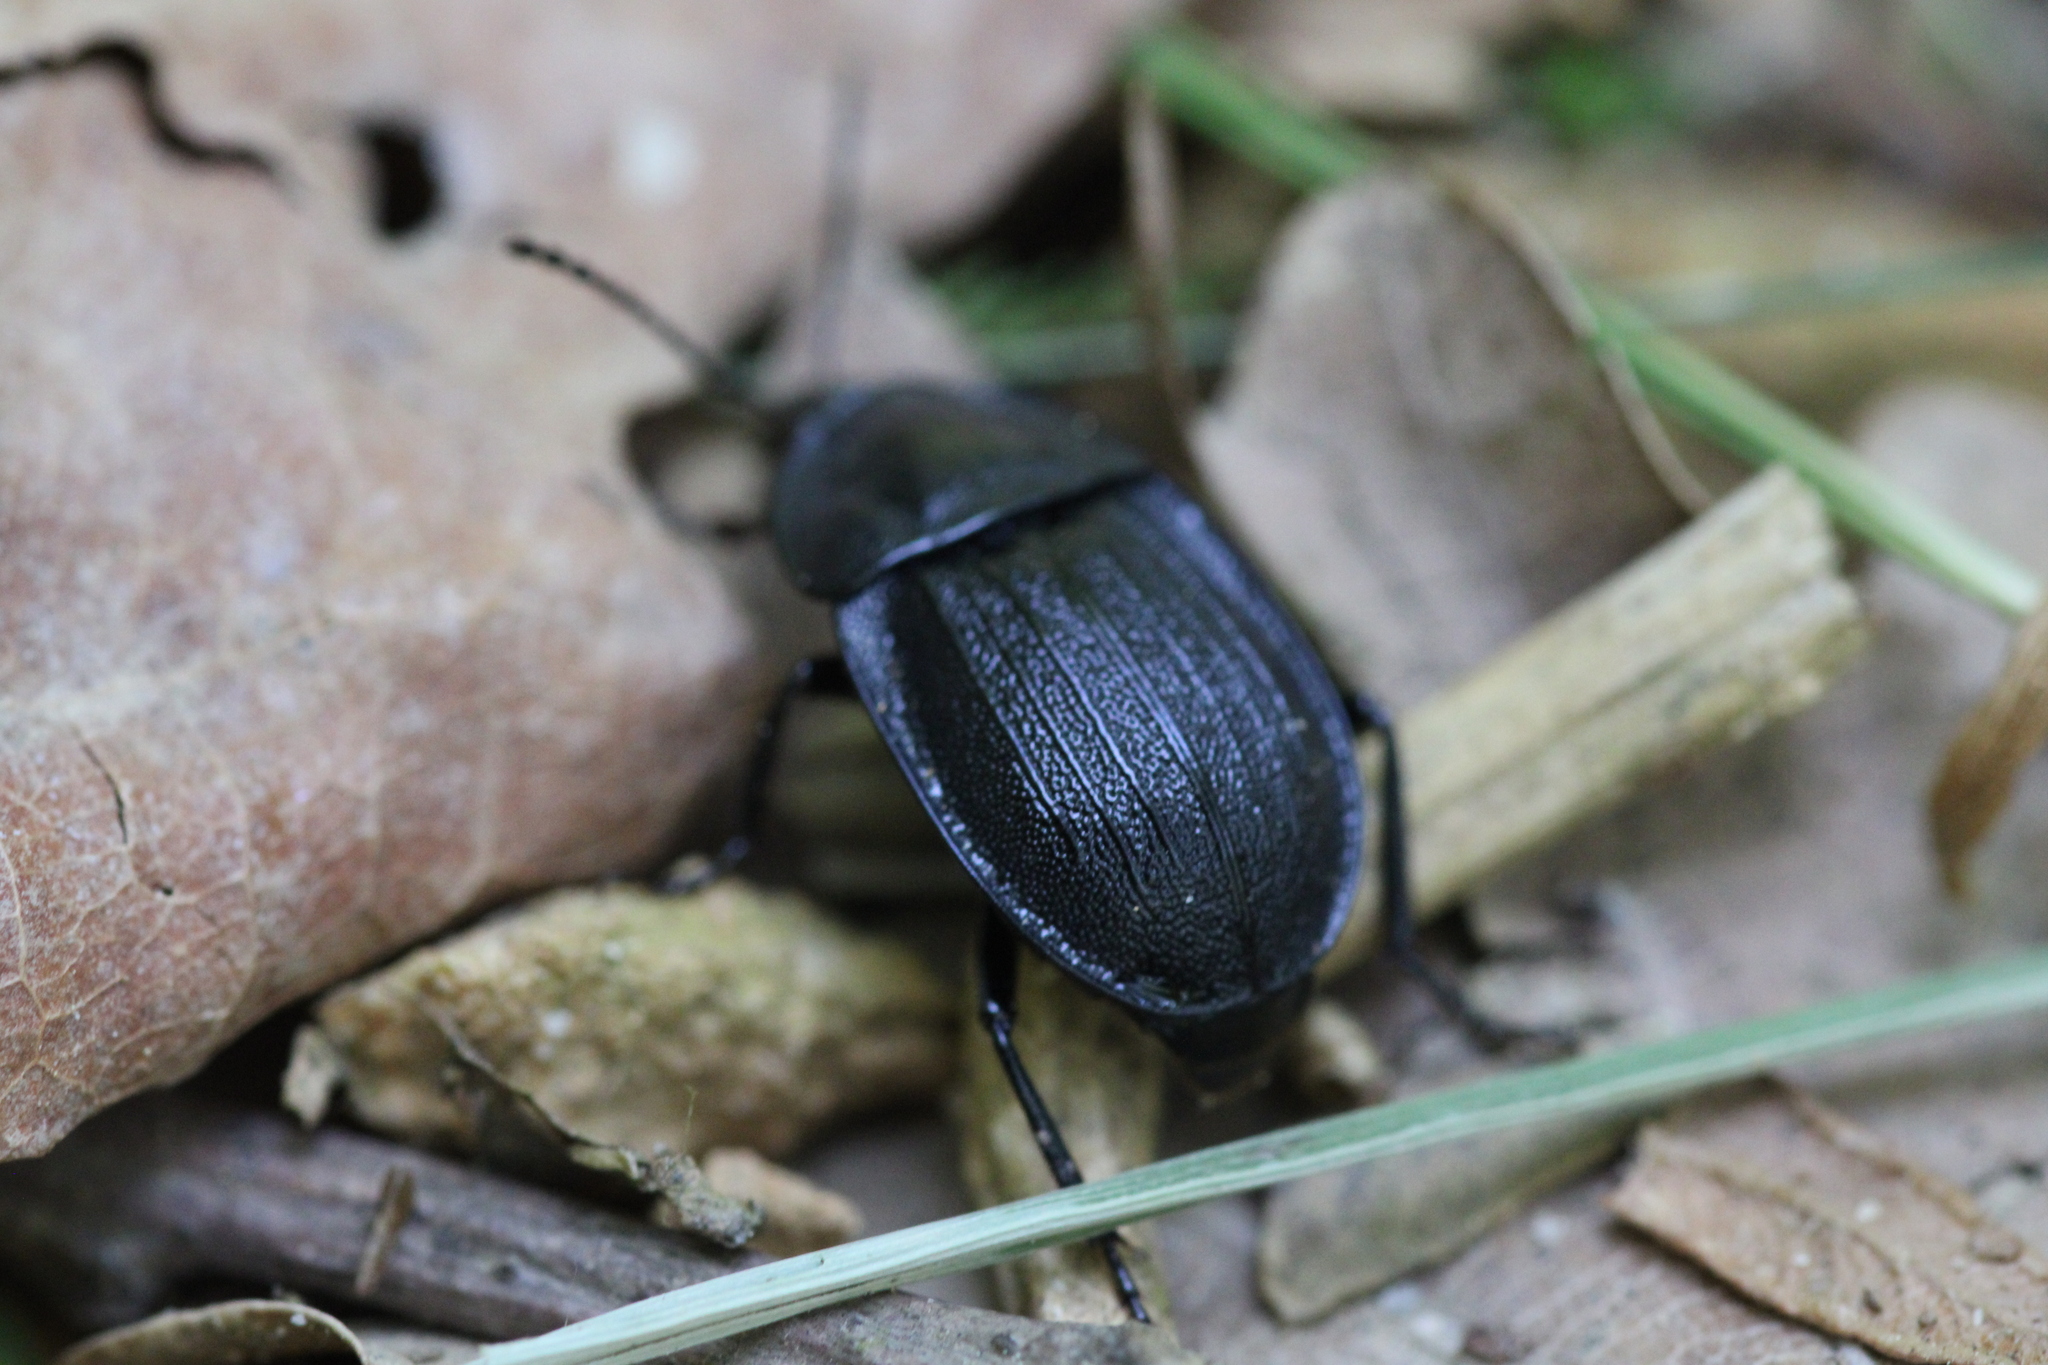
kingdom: Animalia
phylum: Arthropoda
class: Insecta
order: Coleoptera
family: Staphylinidae
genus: Silpha
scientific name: Silpha atrata
